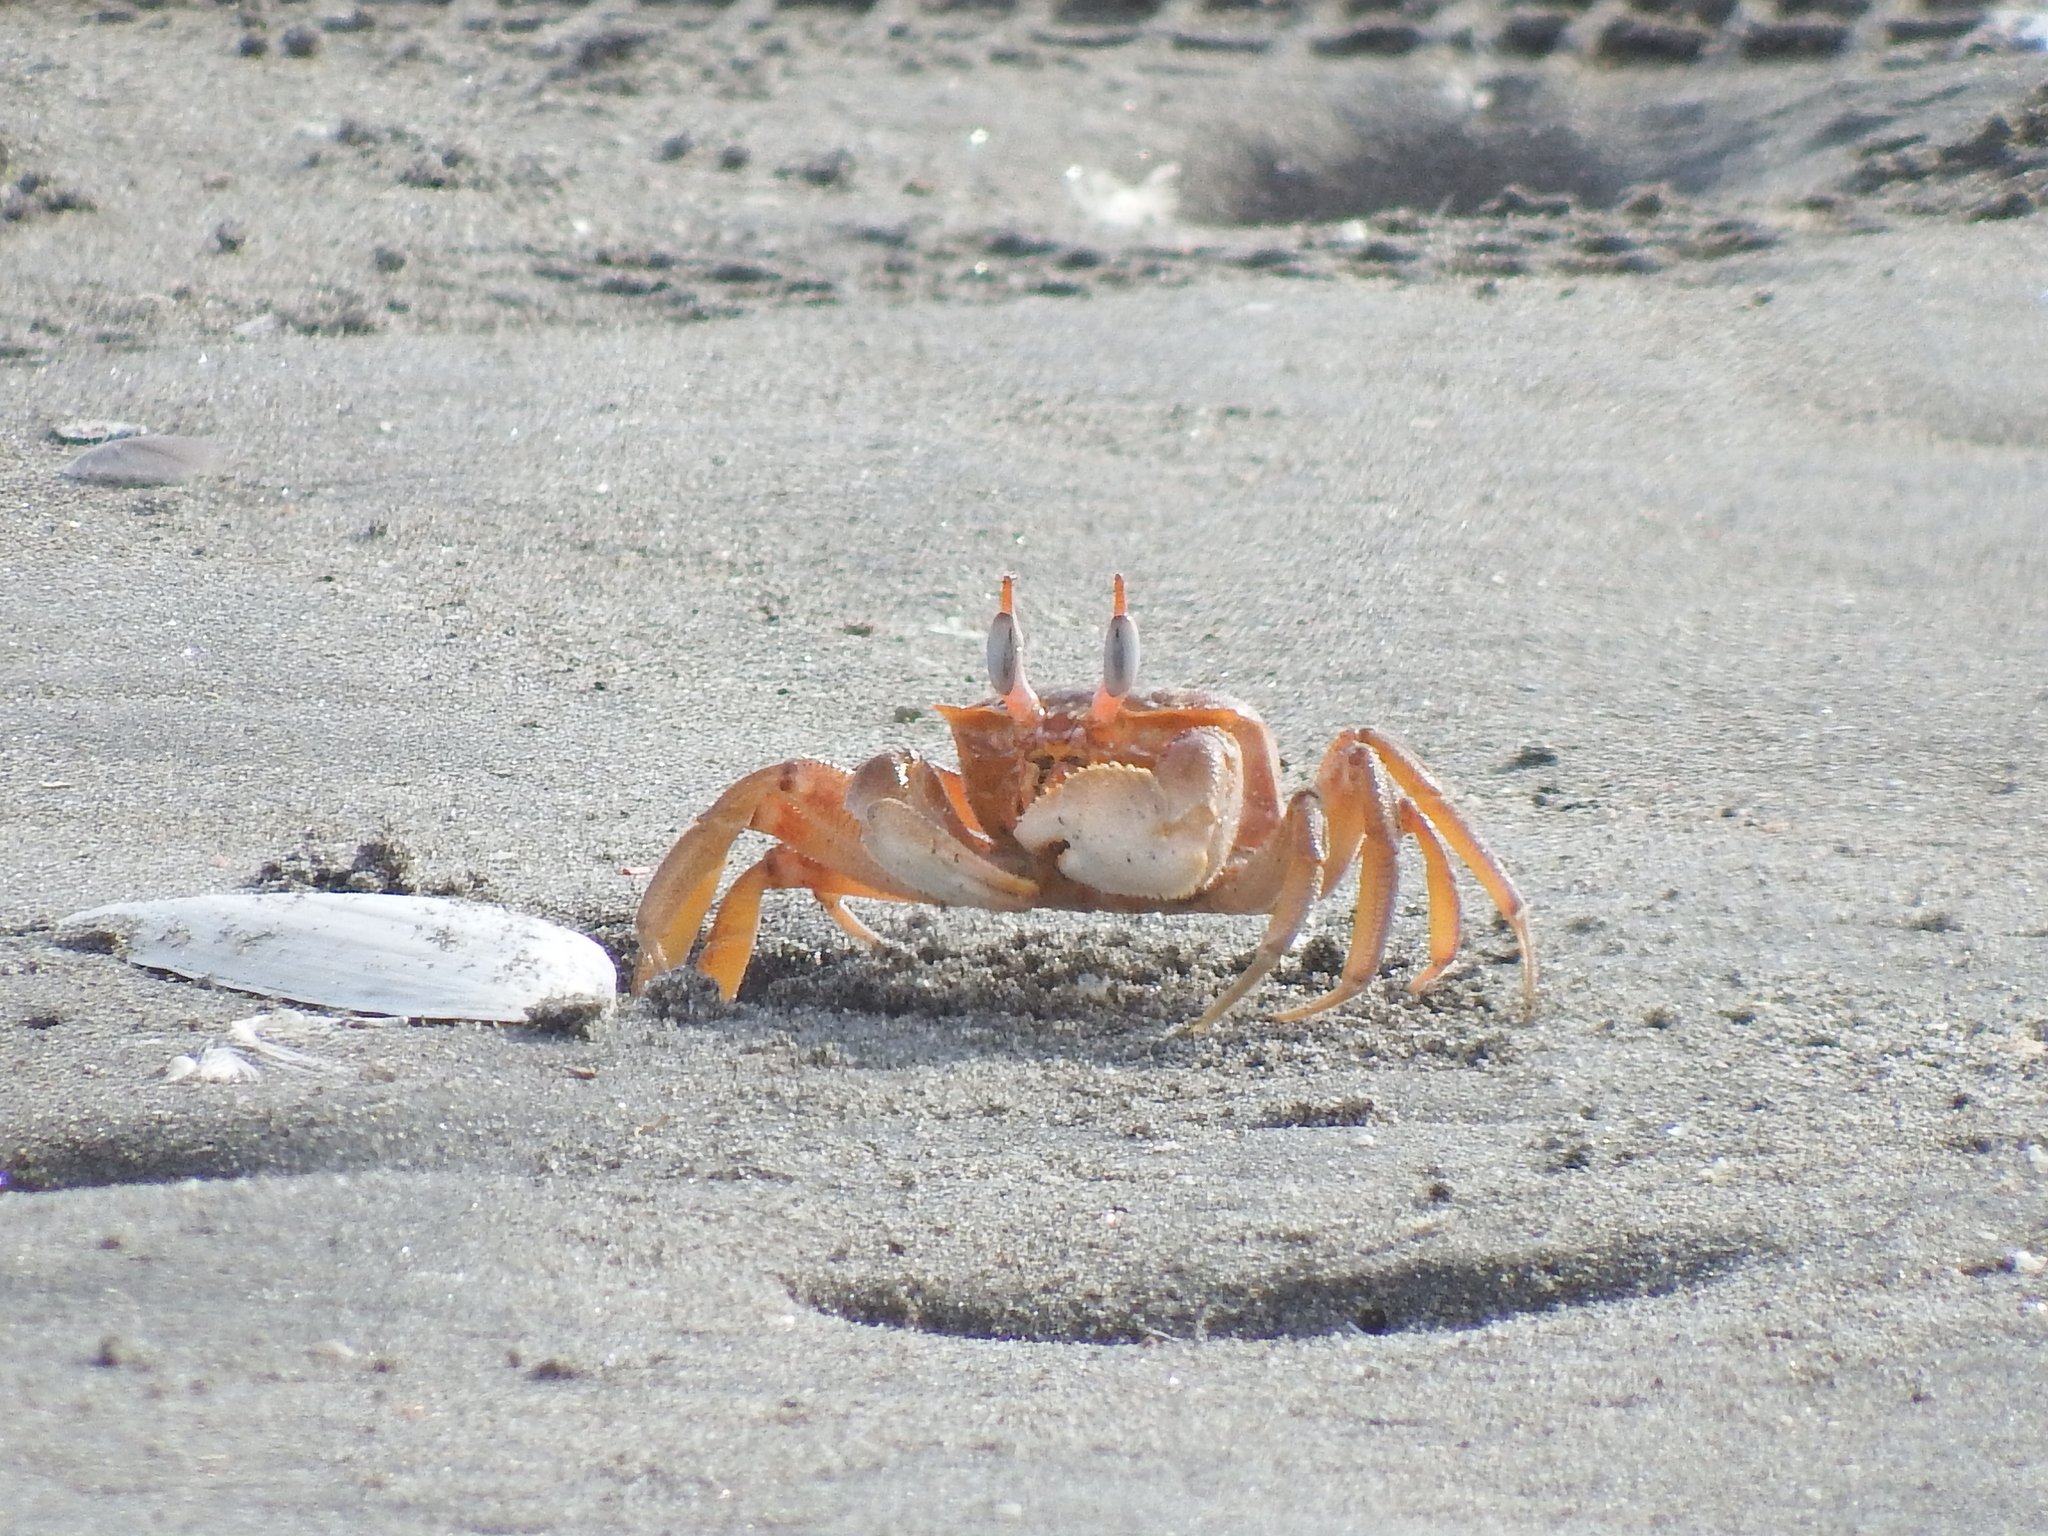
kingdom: Animalia
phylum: Arthropoda
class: Malacostraca
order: Decapoda
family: Ocypodidae
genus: Ocypode
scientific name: Ocypode gaudichaudii
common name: Pacific ghost crab
